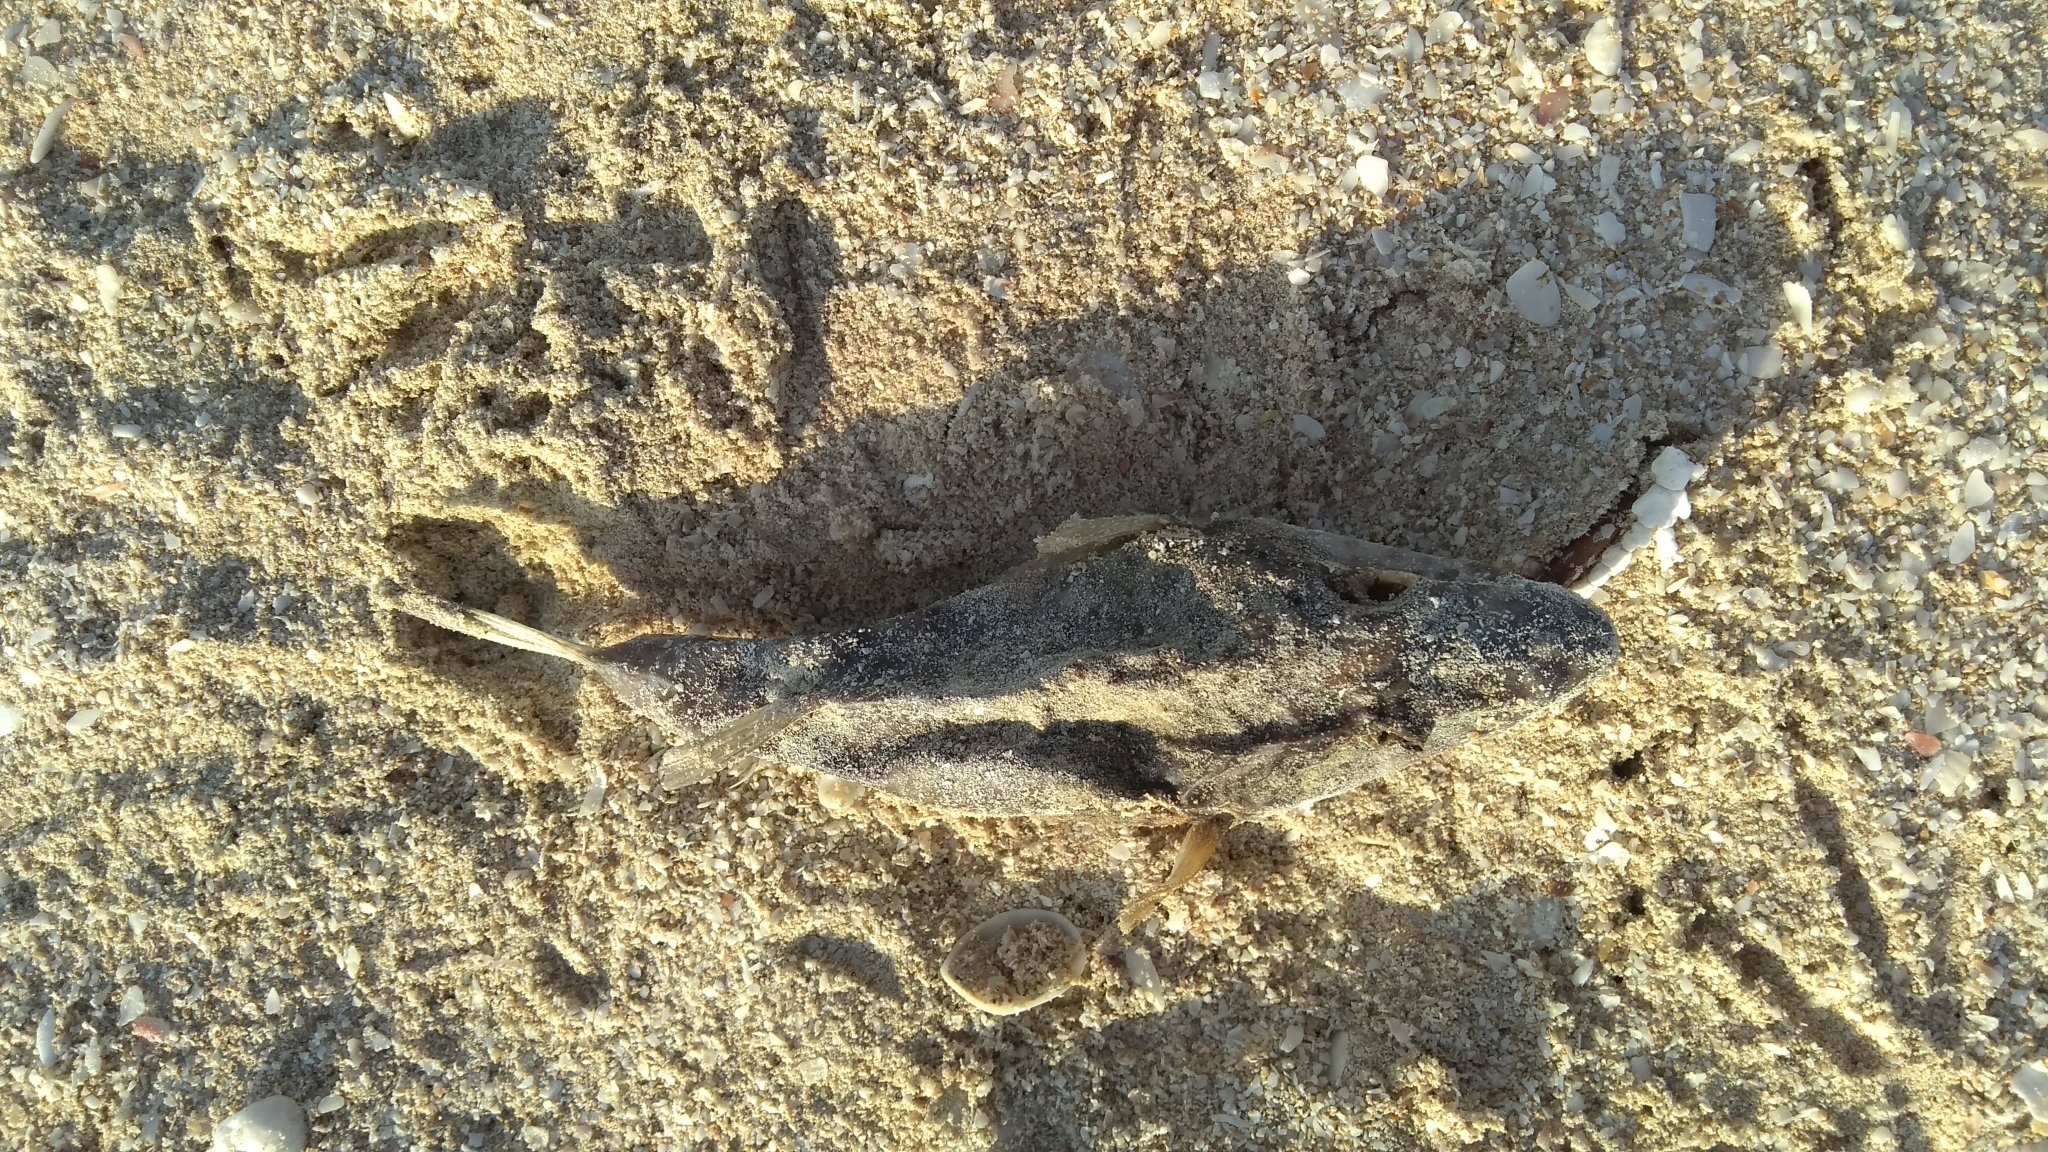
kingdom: Animalia
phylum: Chordata
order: Tetraodontiformes
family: Tetraodontidae
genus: Sphoeroides
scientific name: Sphoeroides testudineus
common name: Checkered puffer
